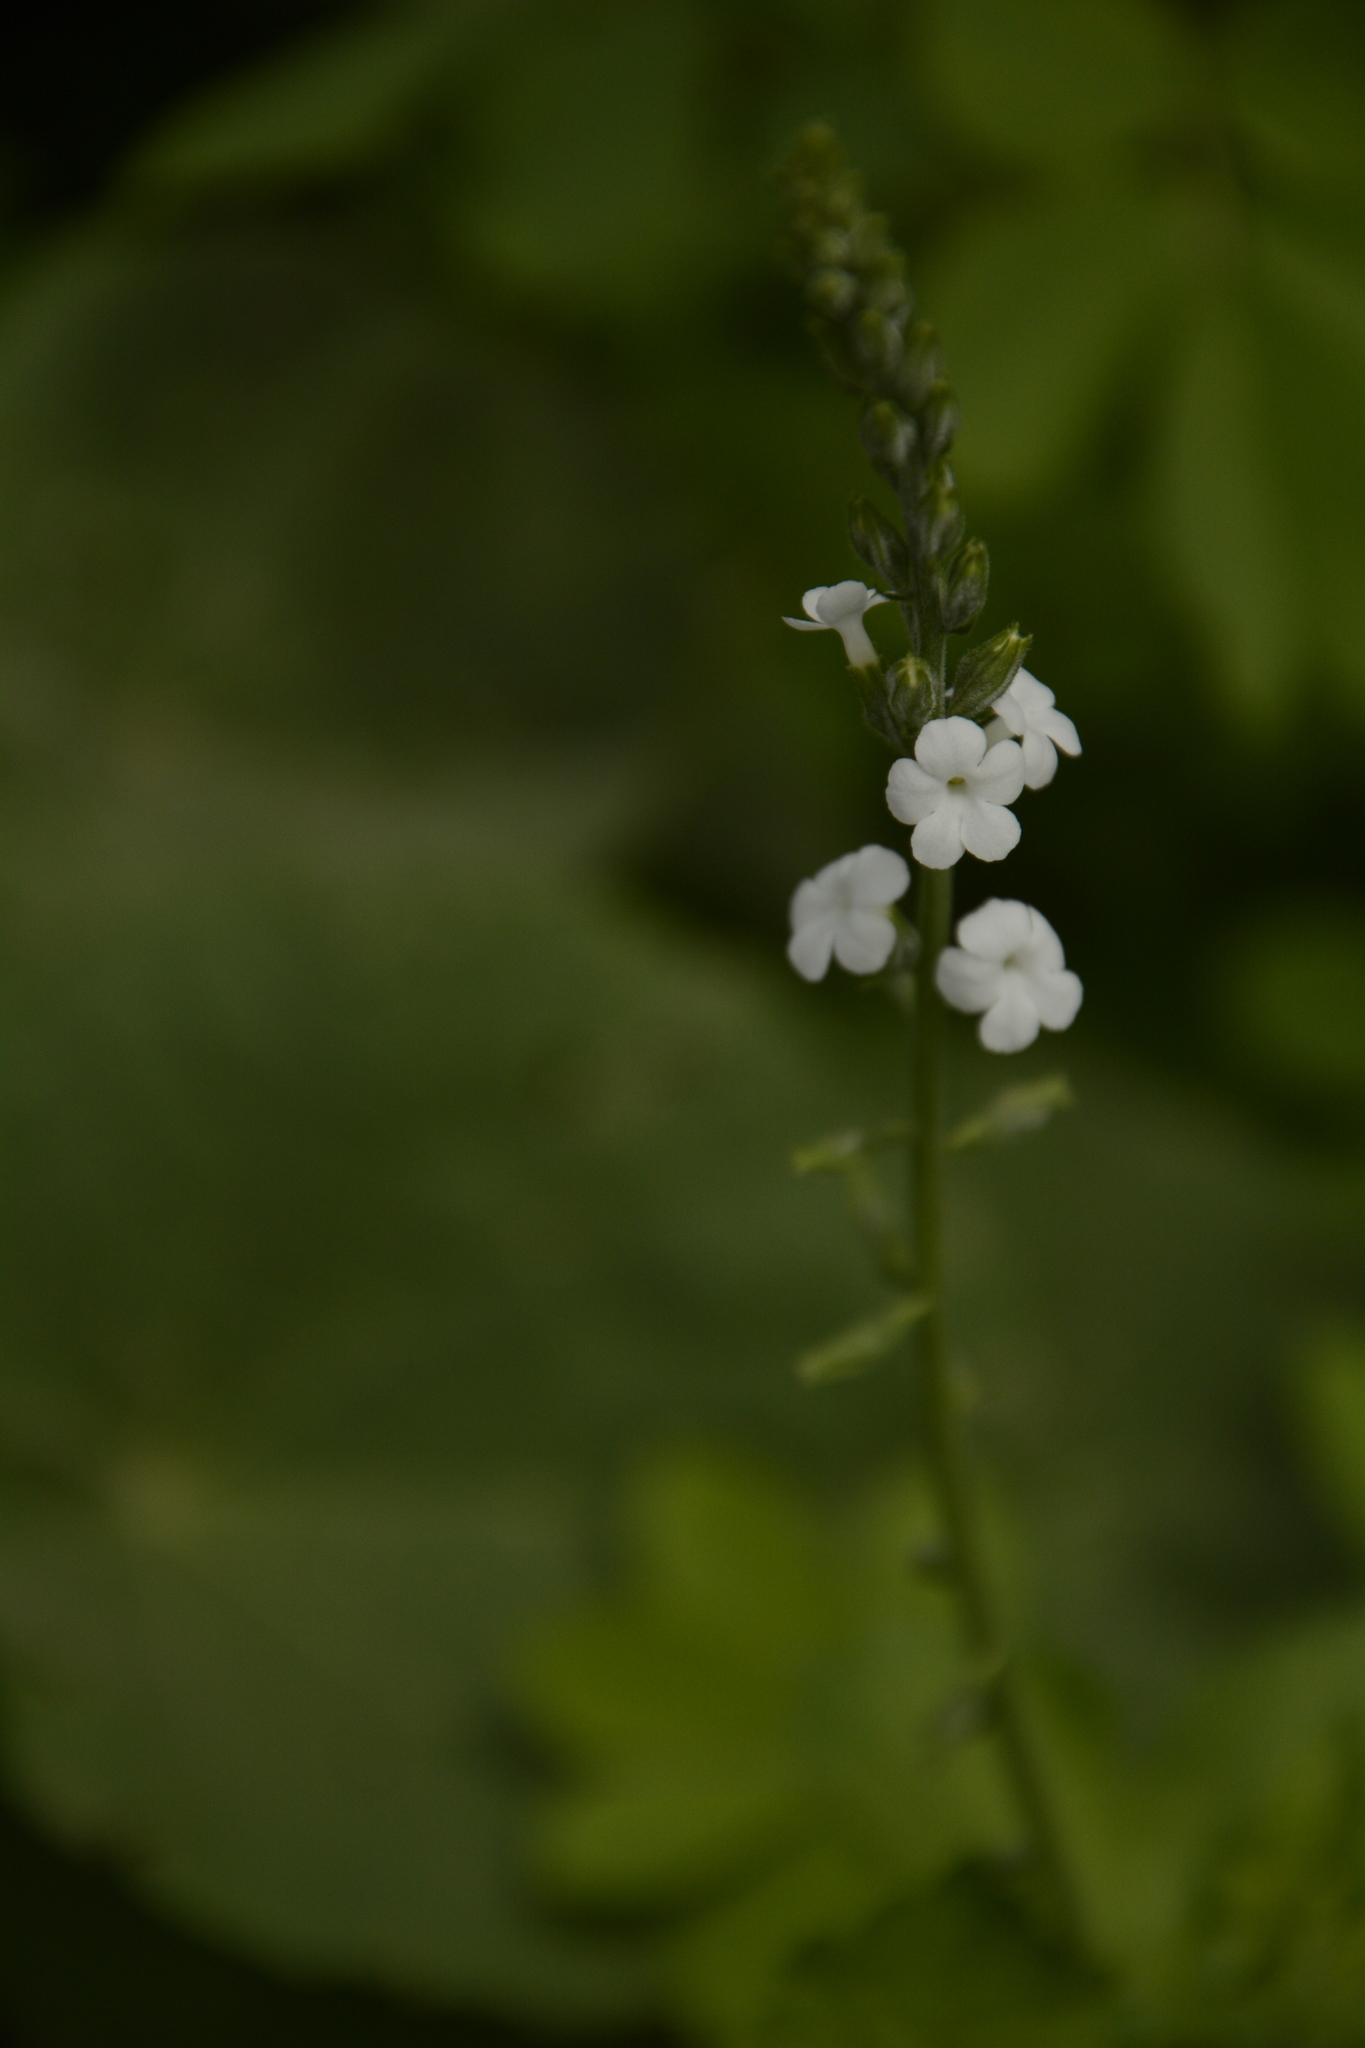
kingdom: Plantae
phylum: Tracheophyta
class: Magnoliopsida
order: Lamiales
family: Verbenaceae
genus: Priva
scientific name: Priva cordifolia
